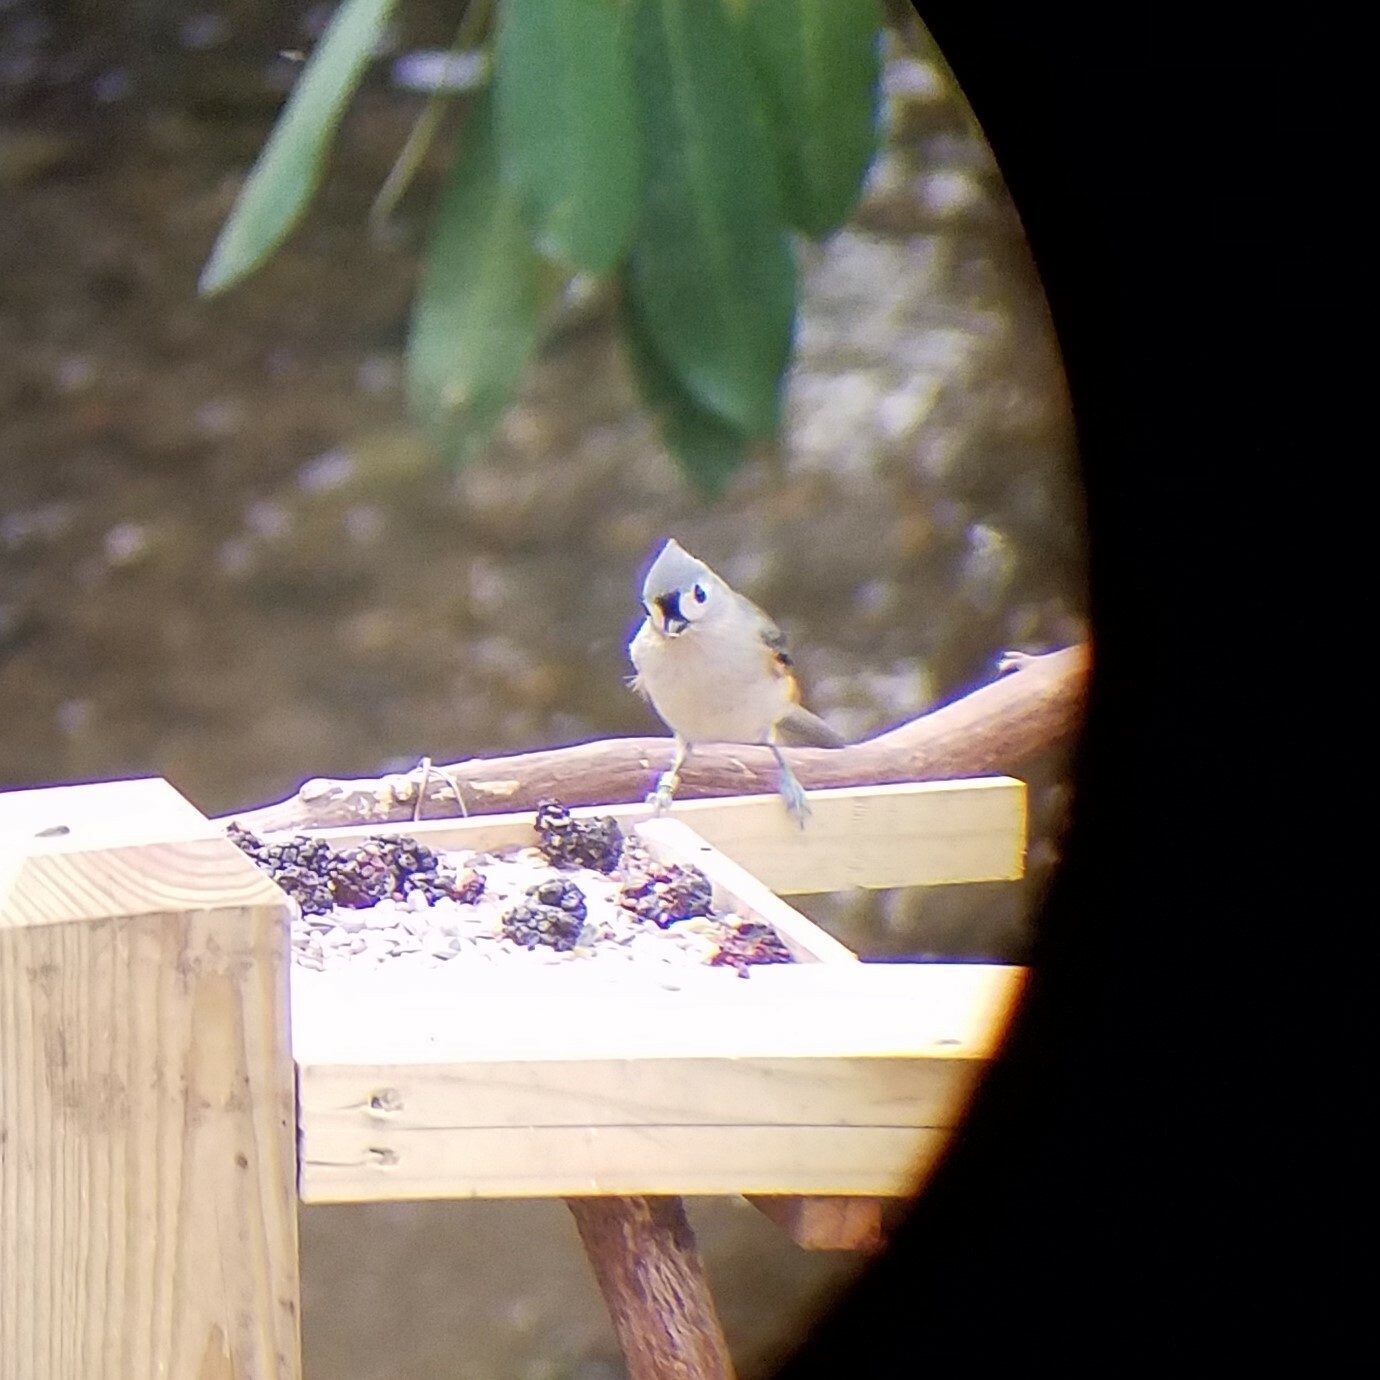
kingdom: Animalia
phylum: Chordata
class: Aves
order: Passeriformes
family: Paridae
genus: Baeolophus
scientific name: Baeolophus bicolor
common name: Tufted titmouse
